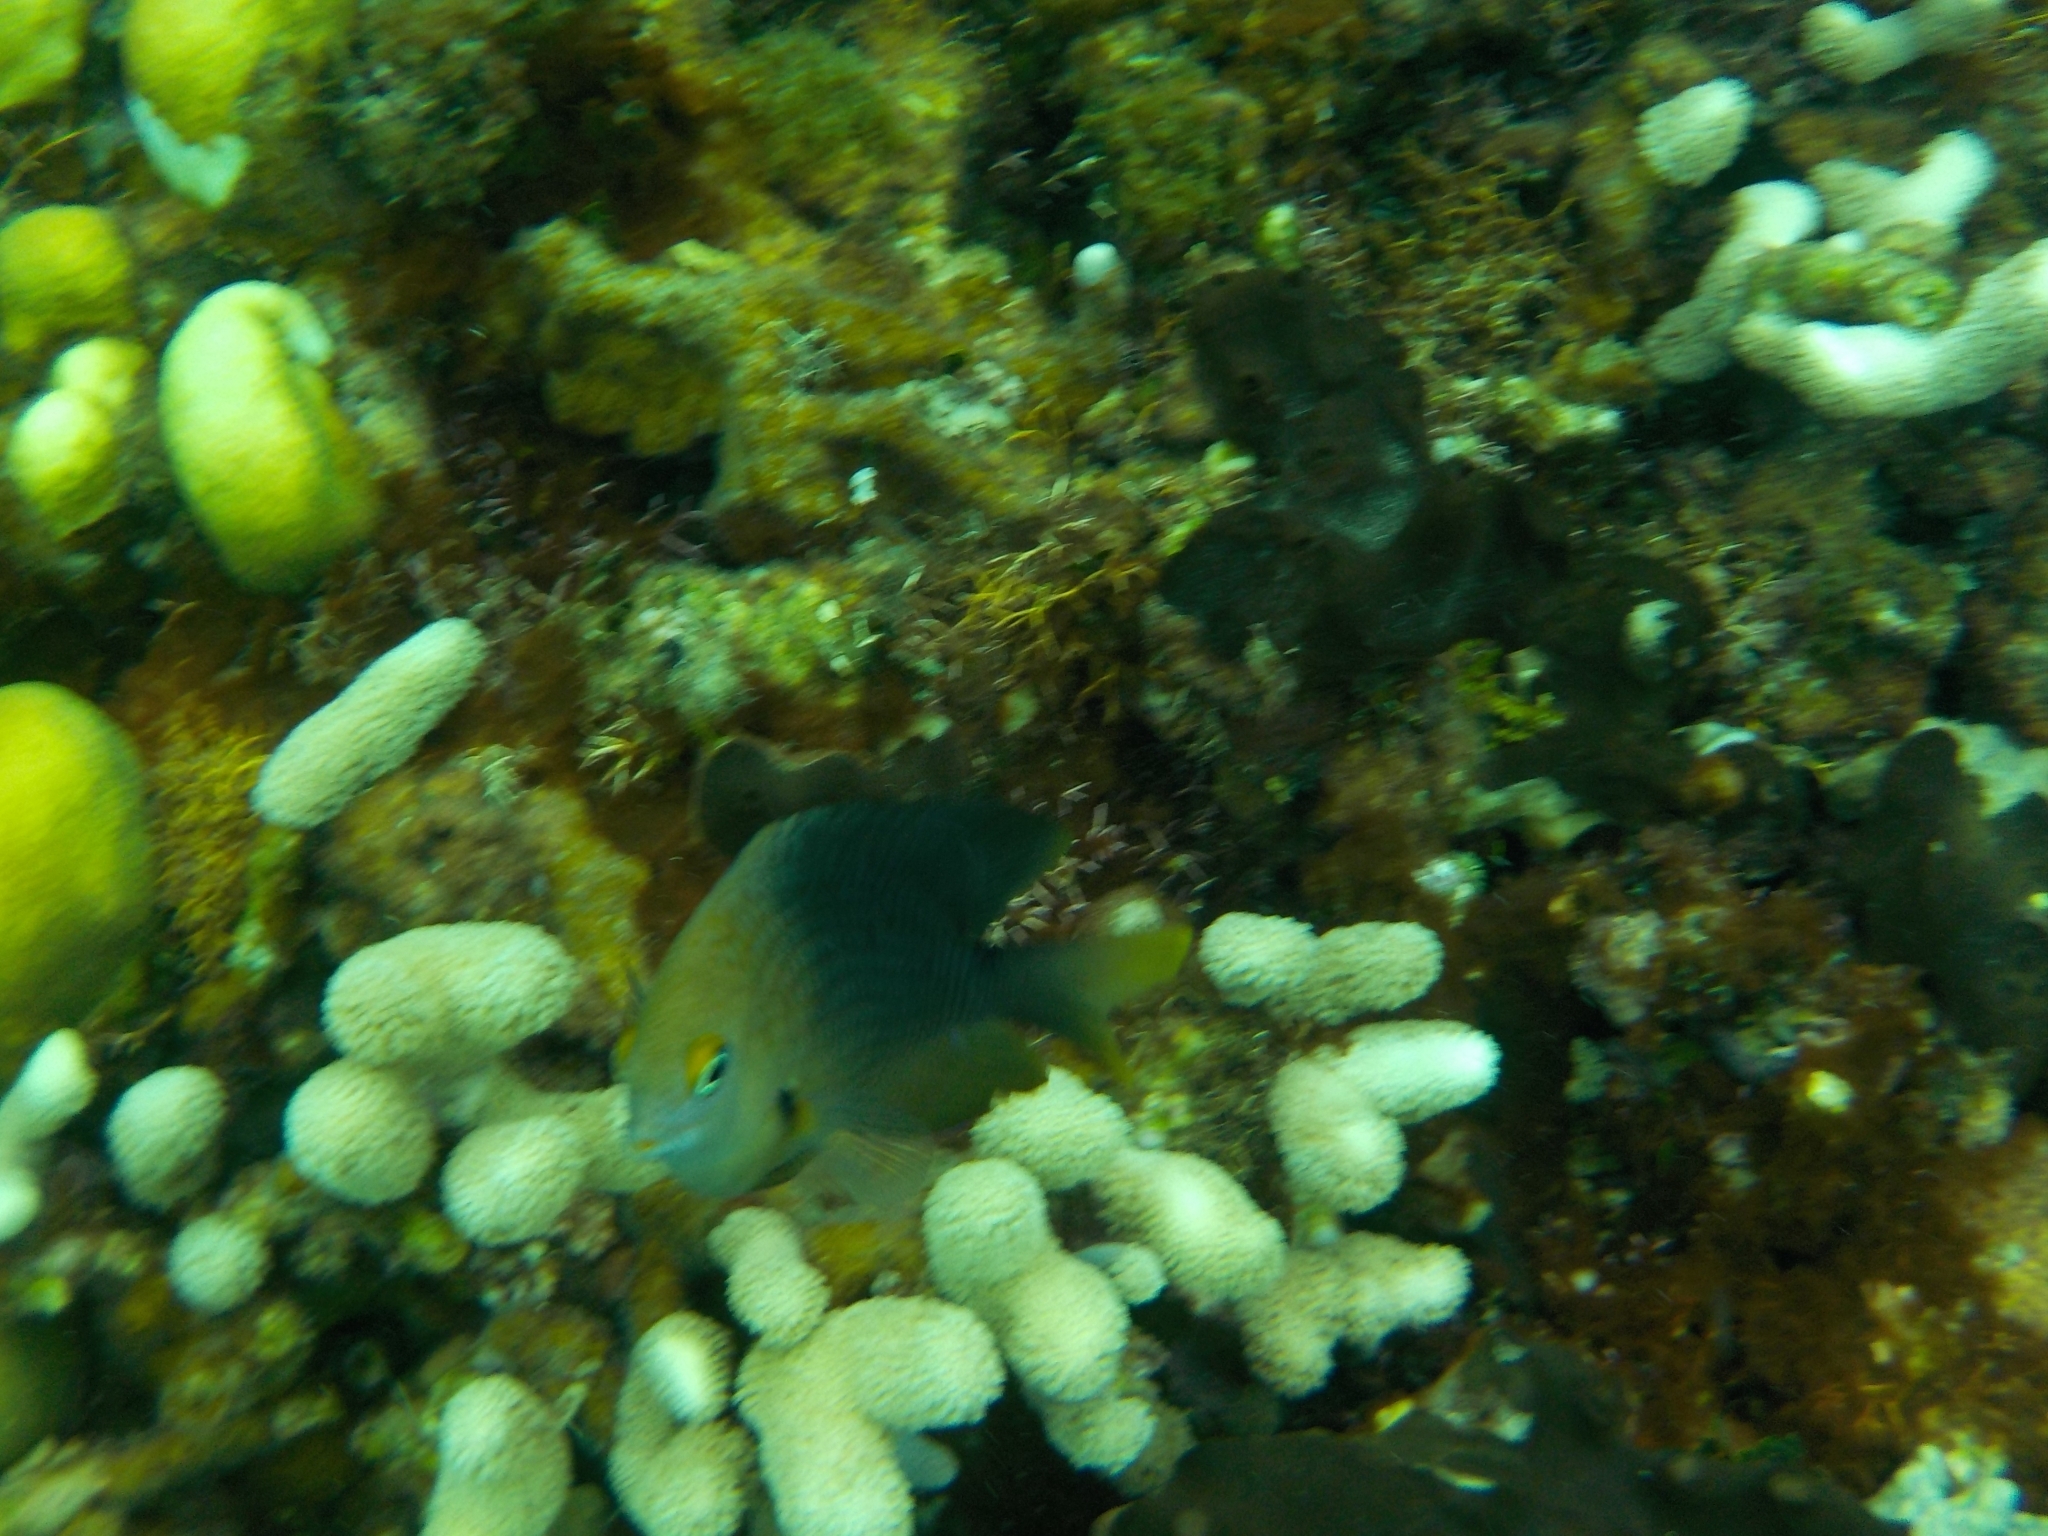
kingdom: Animalia
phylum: Chordata
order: Perciformes
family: Pomacentridae
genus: Stegastes
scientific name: Stegastes planifrons
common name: Threespot damselfish
